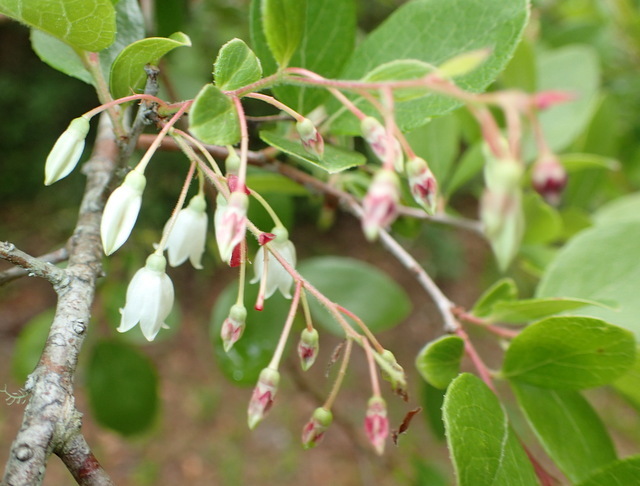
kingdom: Plantae
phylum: Tracheophyta
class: Magnoliopsida
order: Ericales
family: Ericaceae
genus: Vaccinium
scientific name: Vaccinium arboreum
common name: Farkleberry
